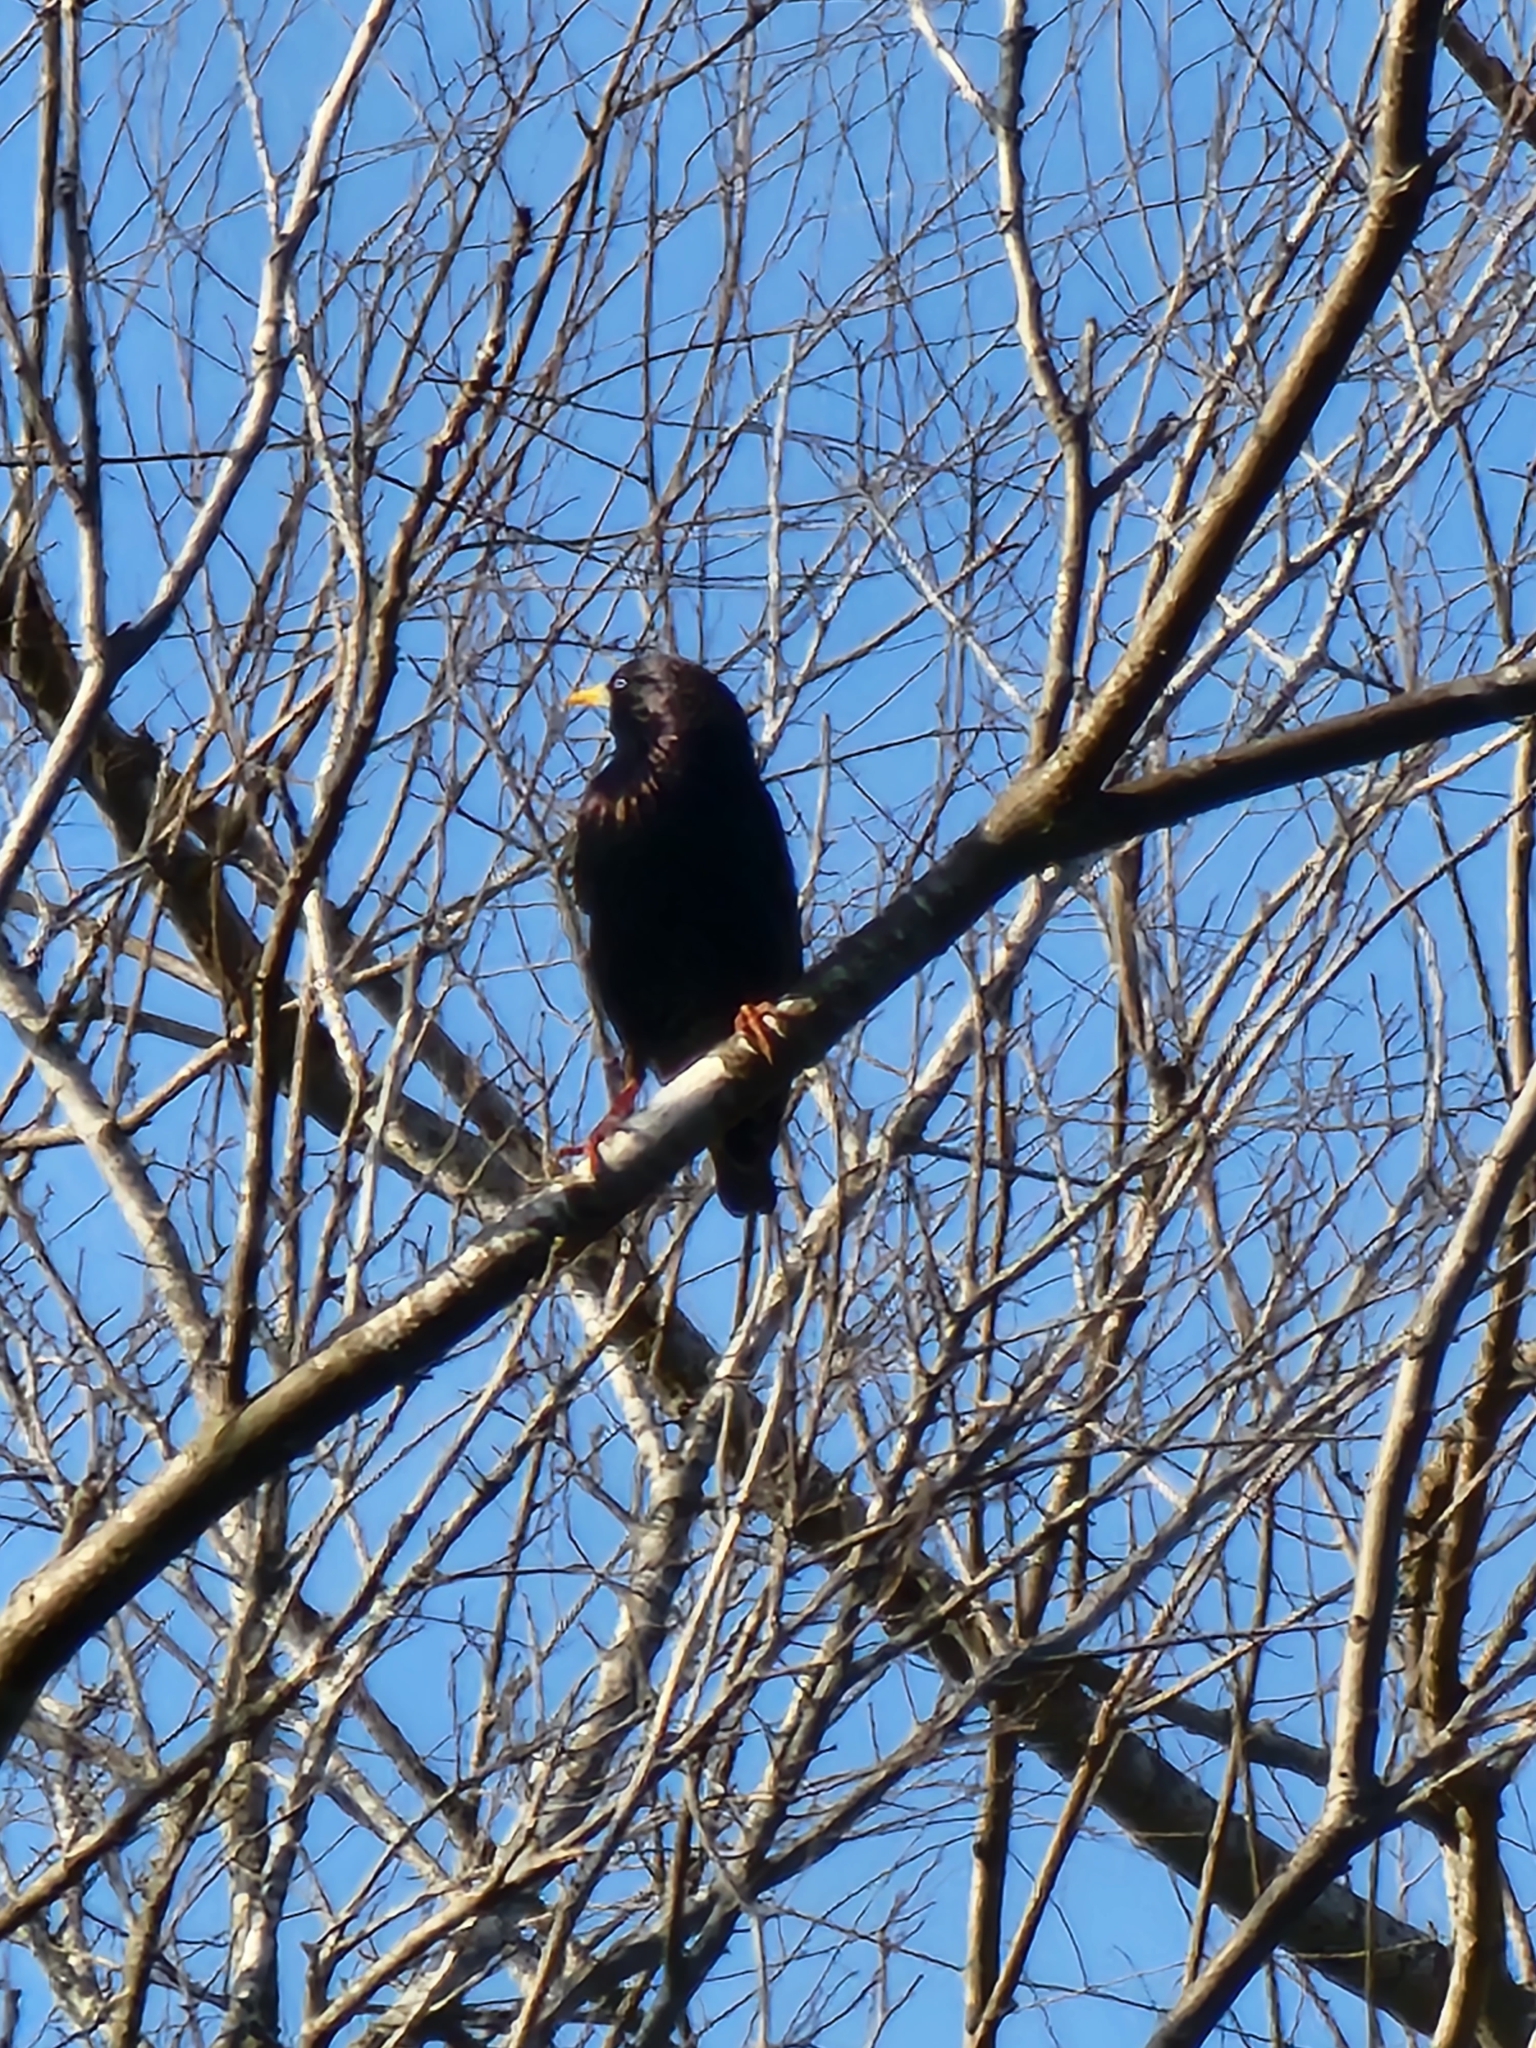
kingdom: Animalia
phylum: Chordata
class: Aves
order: Passeriformes
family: Sturnidae
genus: Sturnus
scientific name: Sturnus vulgaris
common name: Common starling
